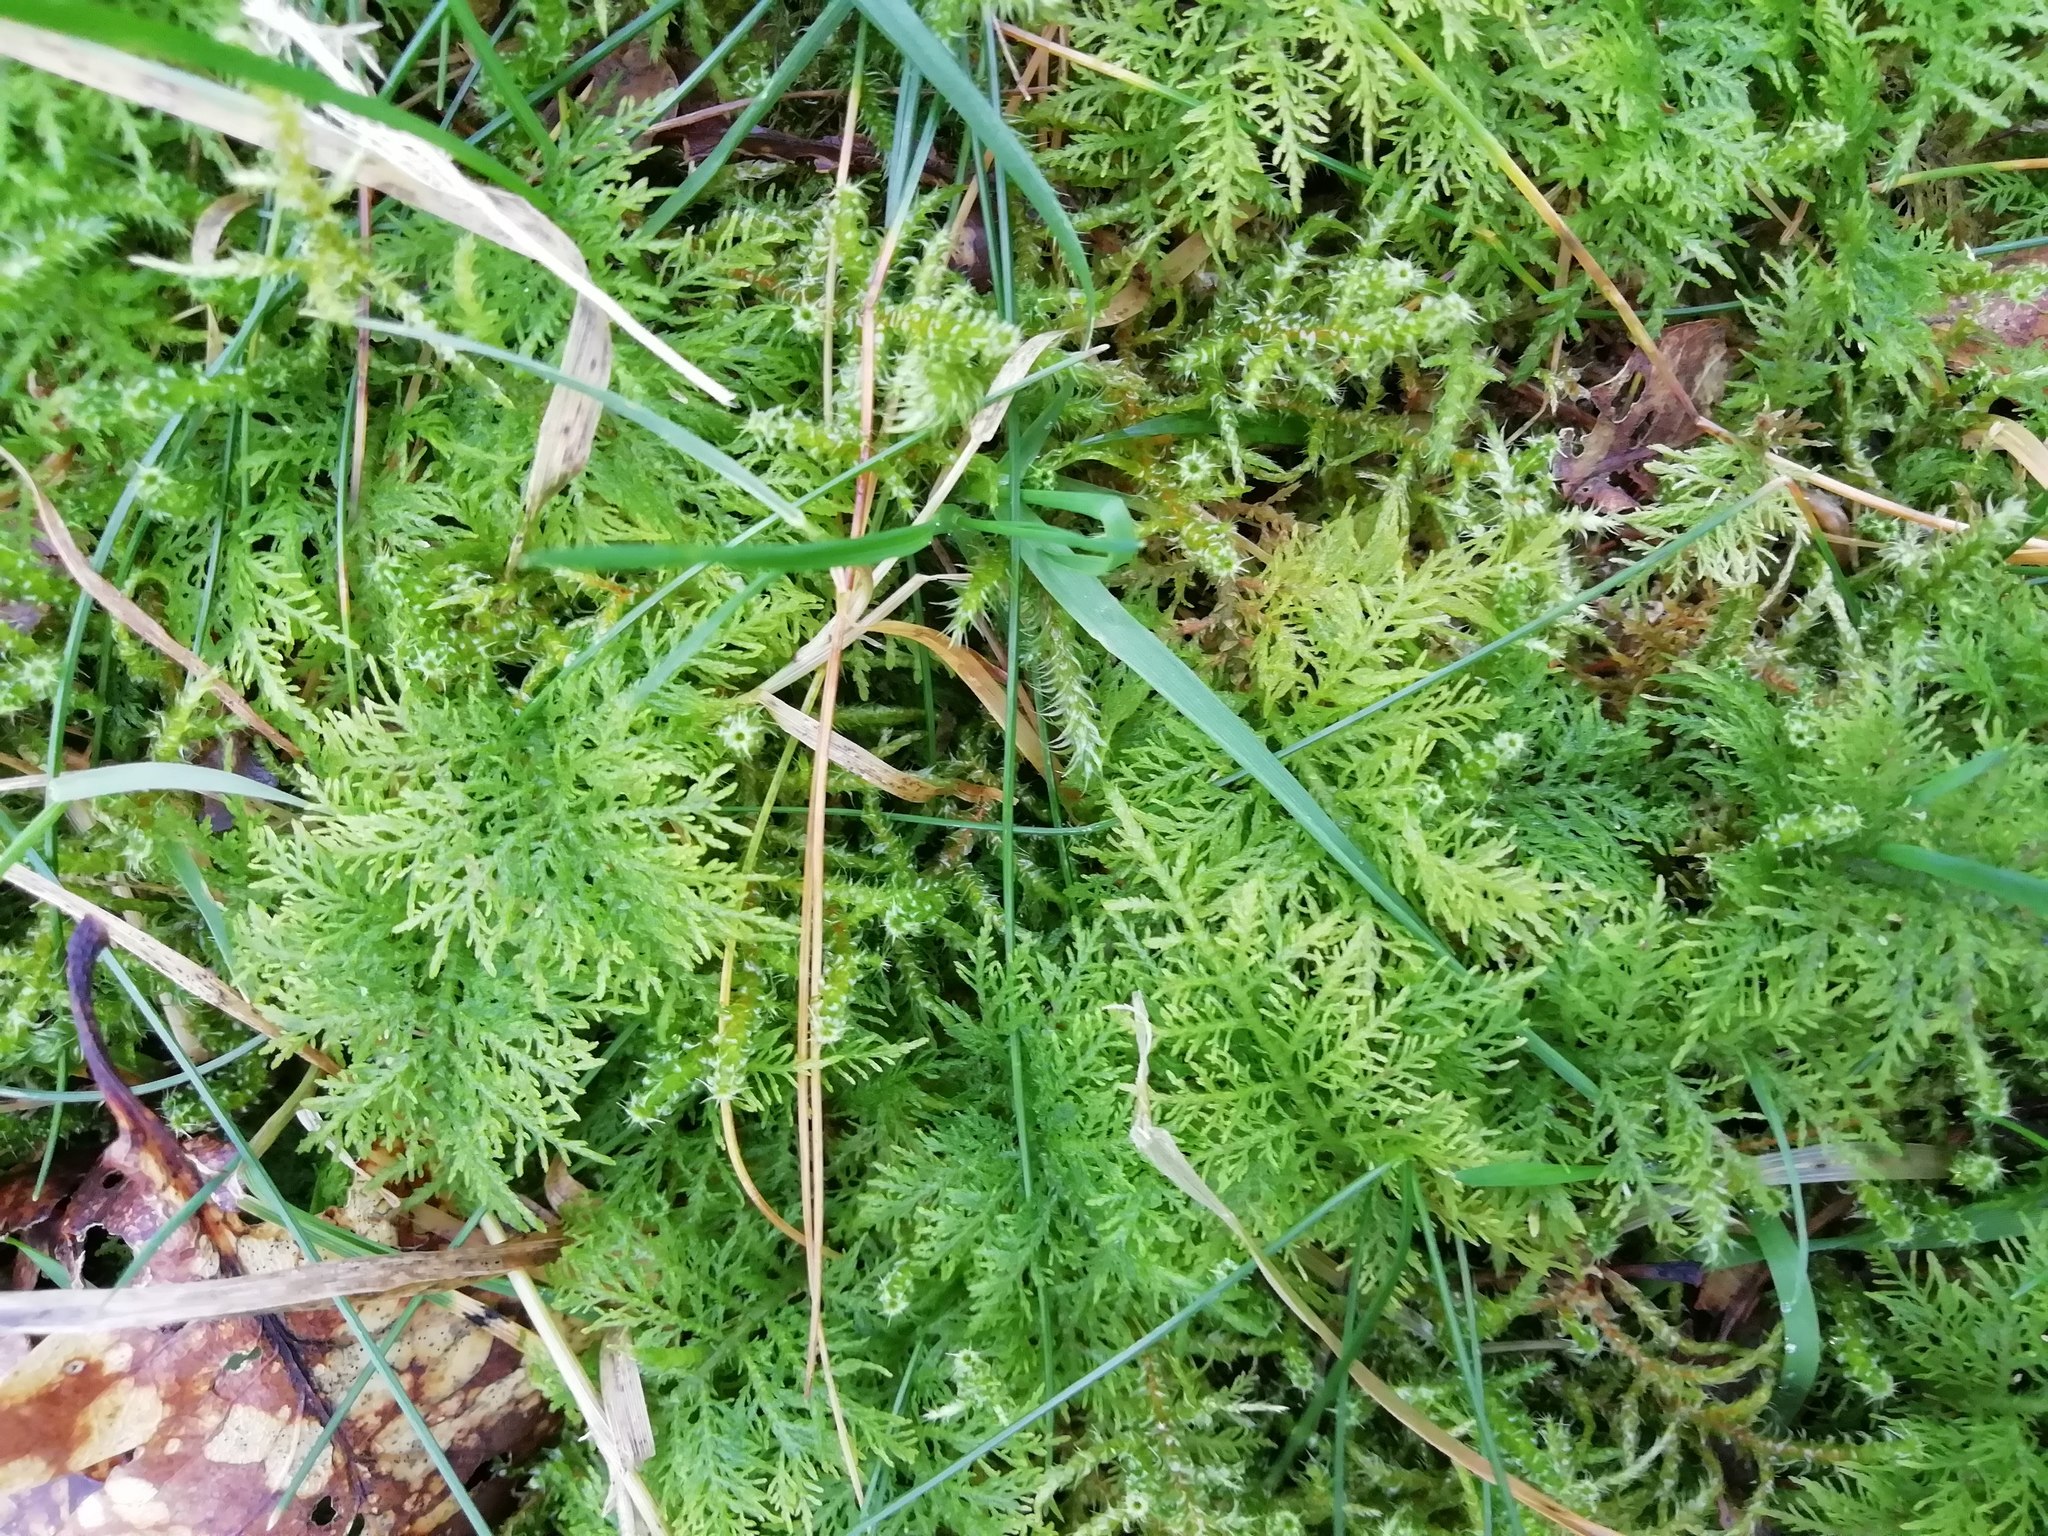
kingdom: Plantae
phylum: Bryophyta
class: Bryopsida
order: Hypnales
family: Thuidiaceae
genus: Thuidium
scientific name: Thuidium tamariscinum
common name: Common tamarisk-moss
